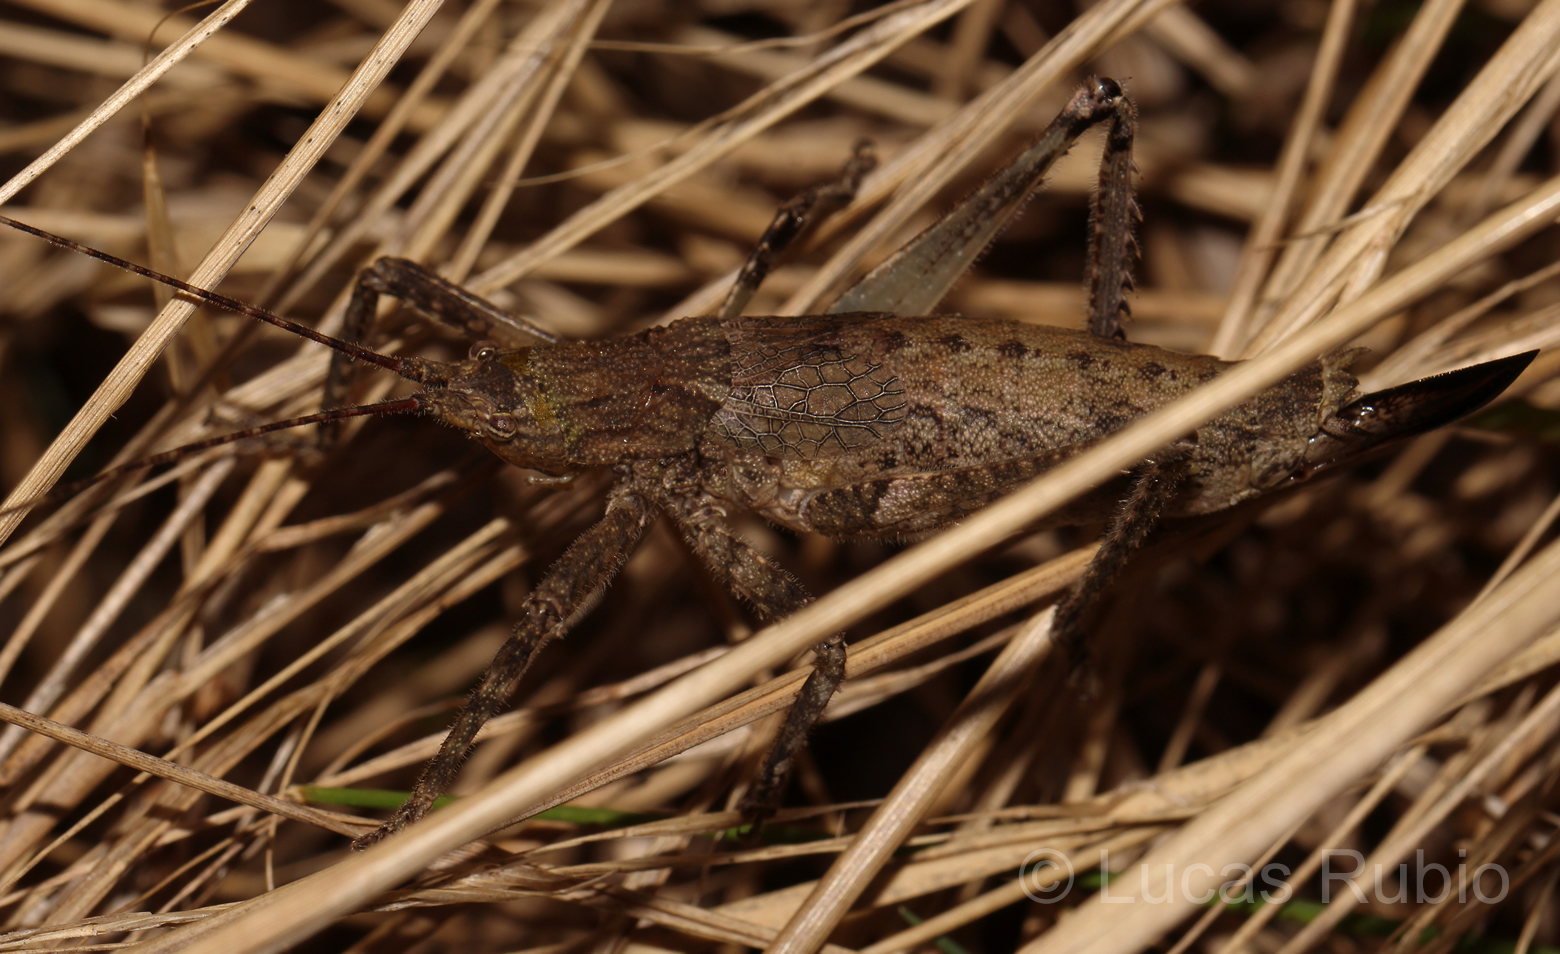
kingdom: Animalia
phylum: Arthropoda
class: Insecta
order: Orthoptera
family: Tettigoniidae
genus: Dasyscelus
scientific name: Dasyscelus normalis
